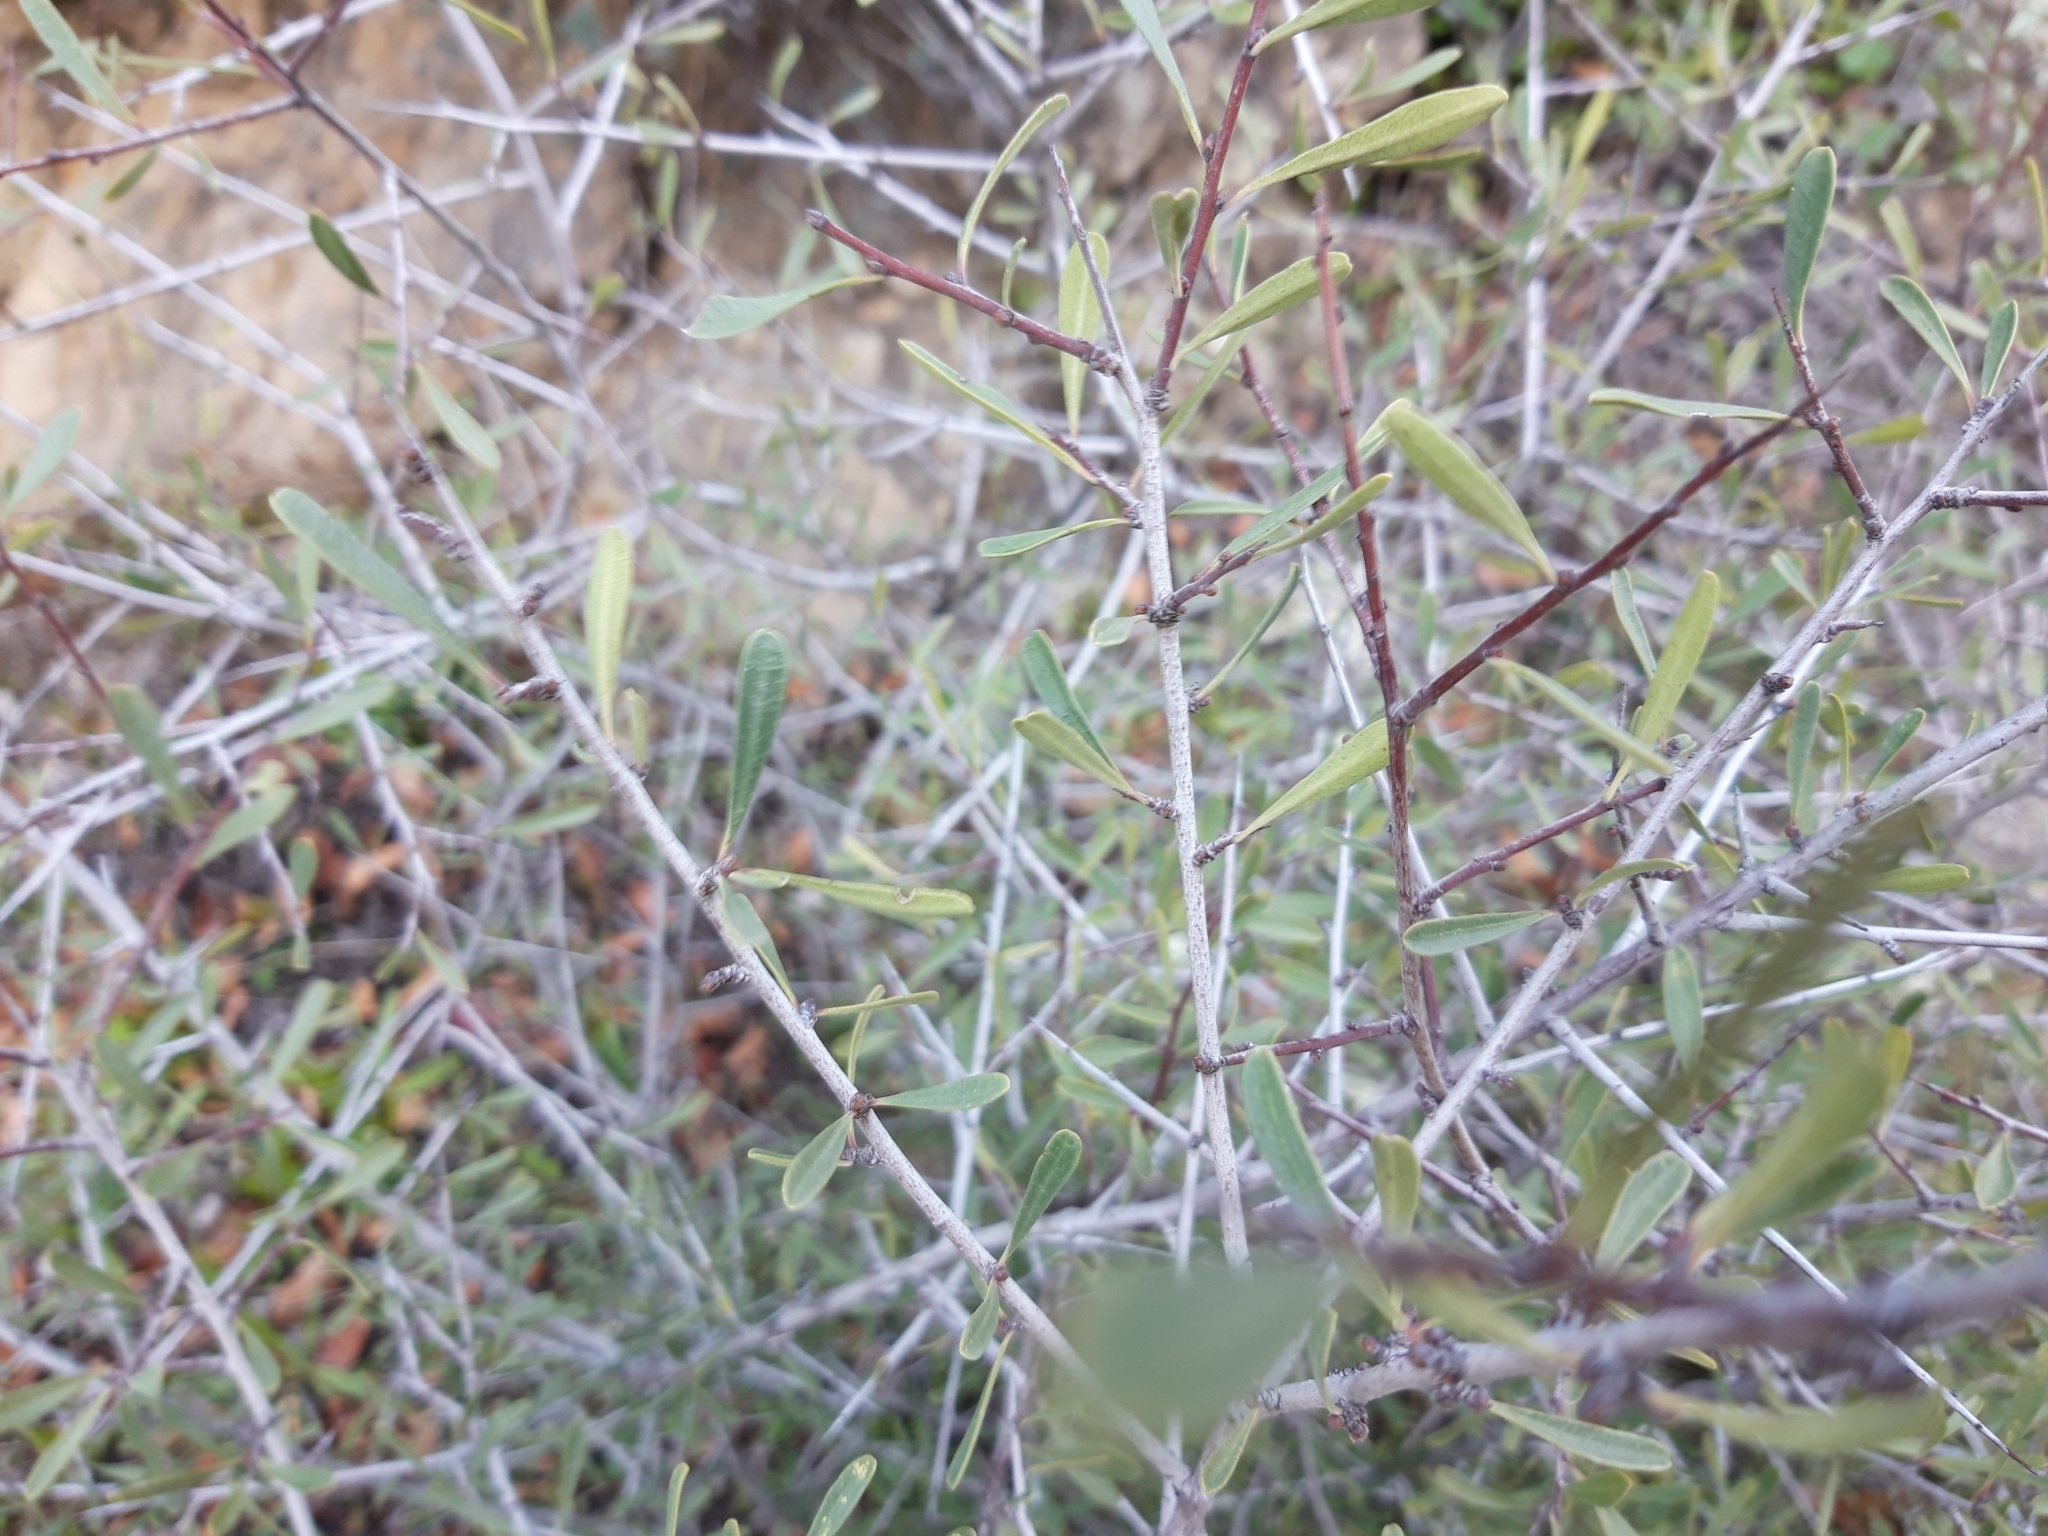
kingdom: Plantae
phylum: Tracheophyta
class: Magnoliopsida
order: Rosales
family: Rhamnaceae
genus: Rhamnus
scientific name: Rhamnus lycioides
